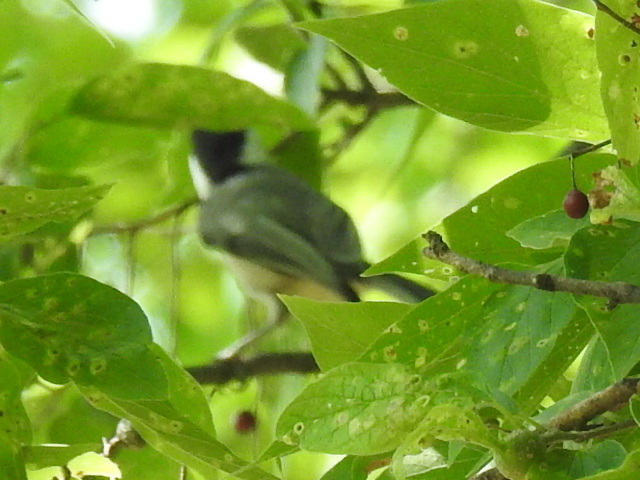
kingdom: Animalia
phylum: Chordata
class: Aves
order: Passeriformes
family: Paridae
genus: Poecile
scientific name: Poecile carolinensis
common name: Carolina chickadee
